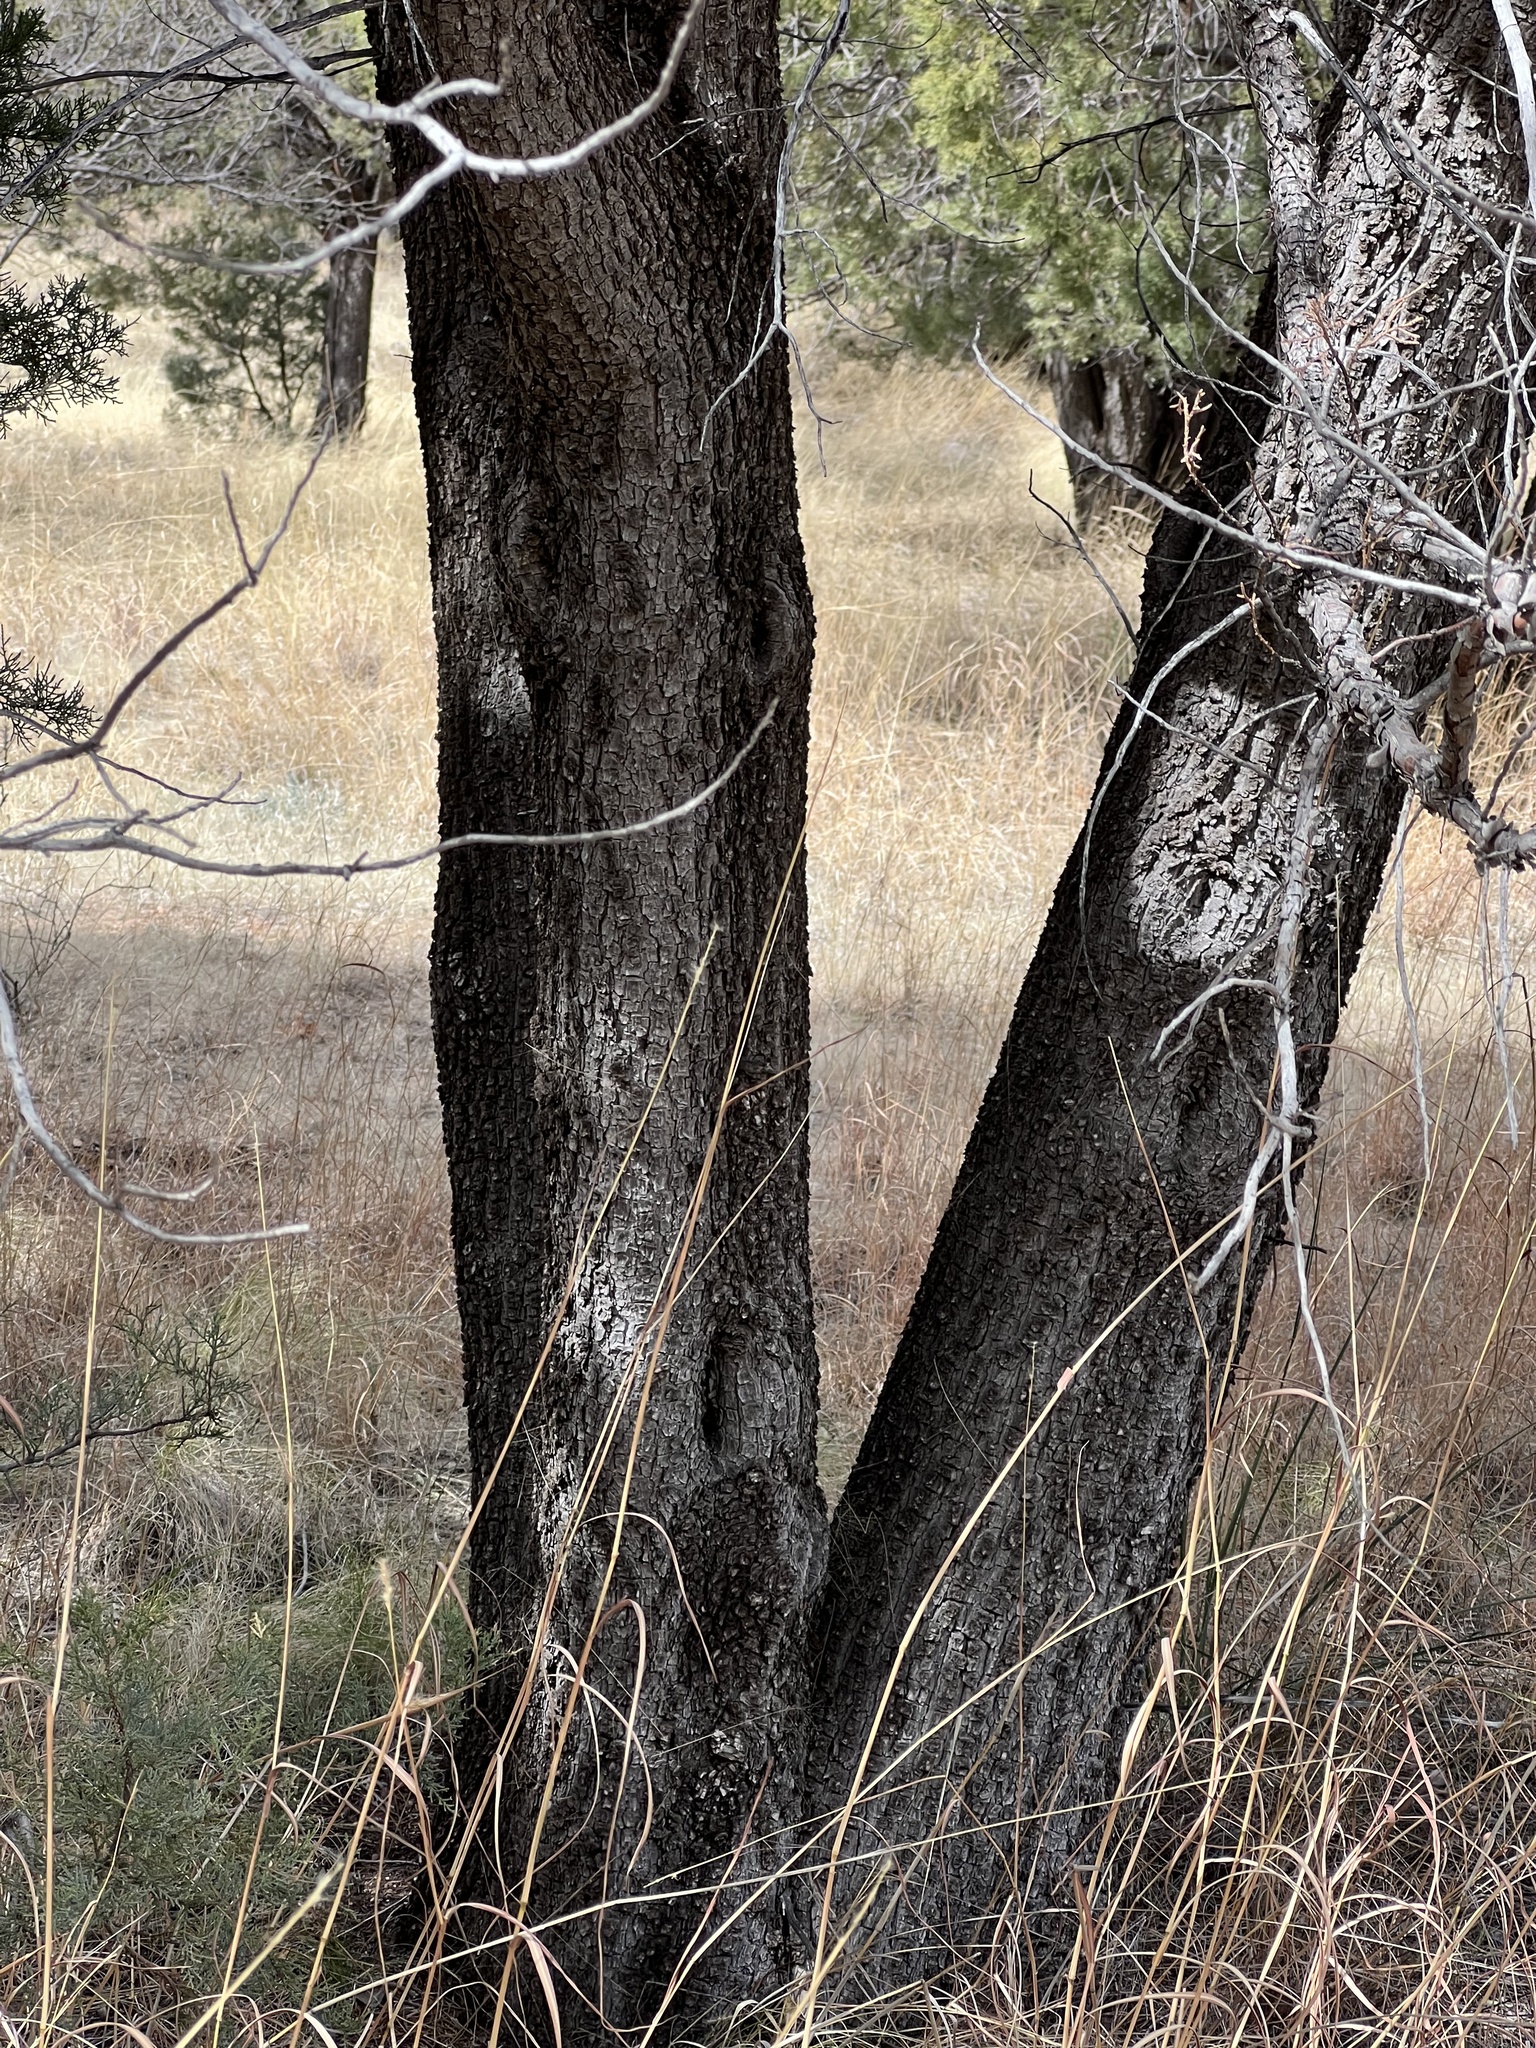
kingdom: Plantae
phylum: Tracheophyta
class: Pinopsida
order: Pinales
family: Cupressaceae
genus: Juniperus
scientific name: Juniperus deppeana
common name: Alligator juniper
